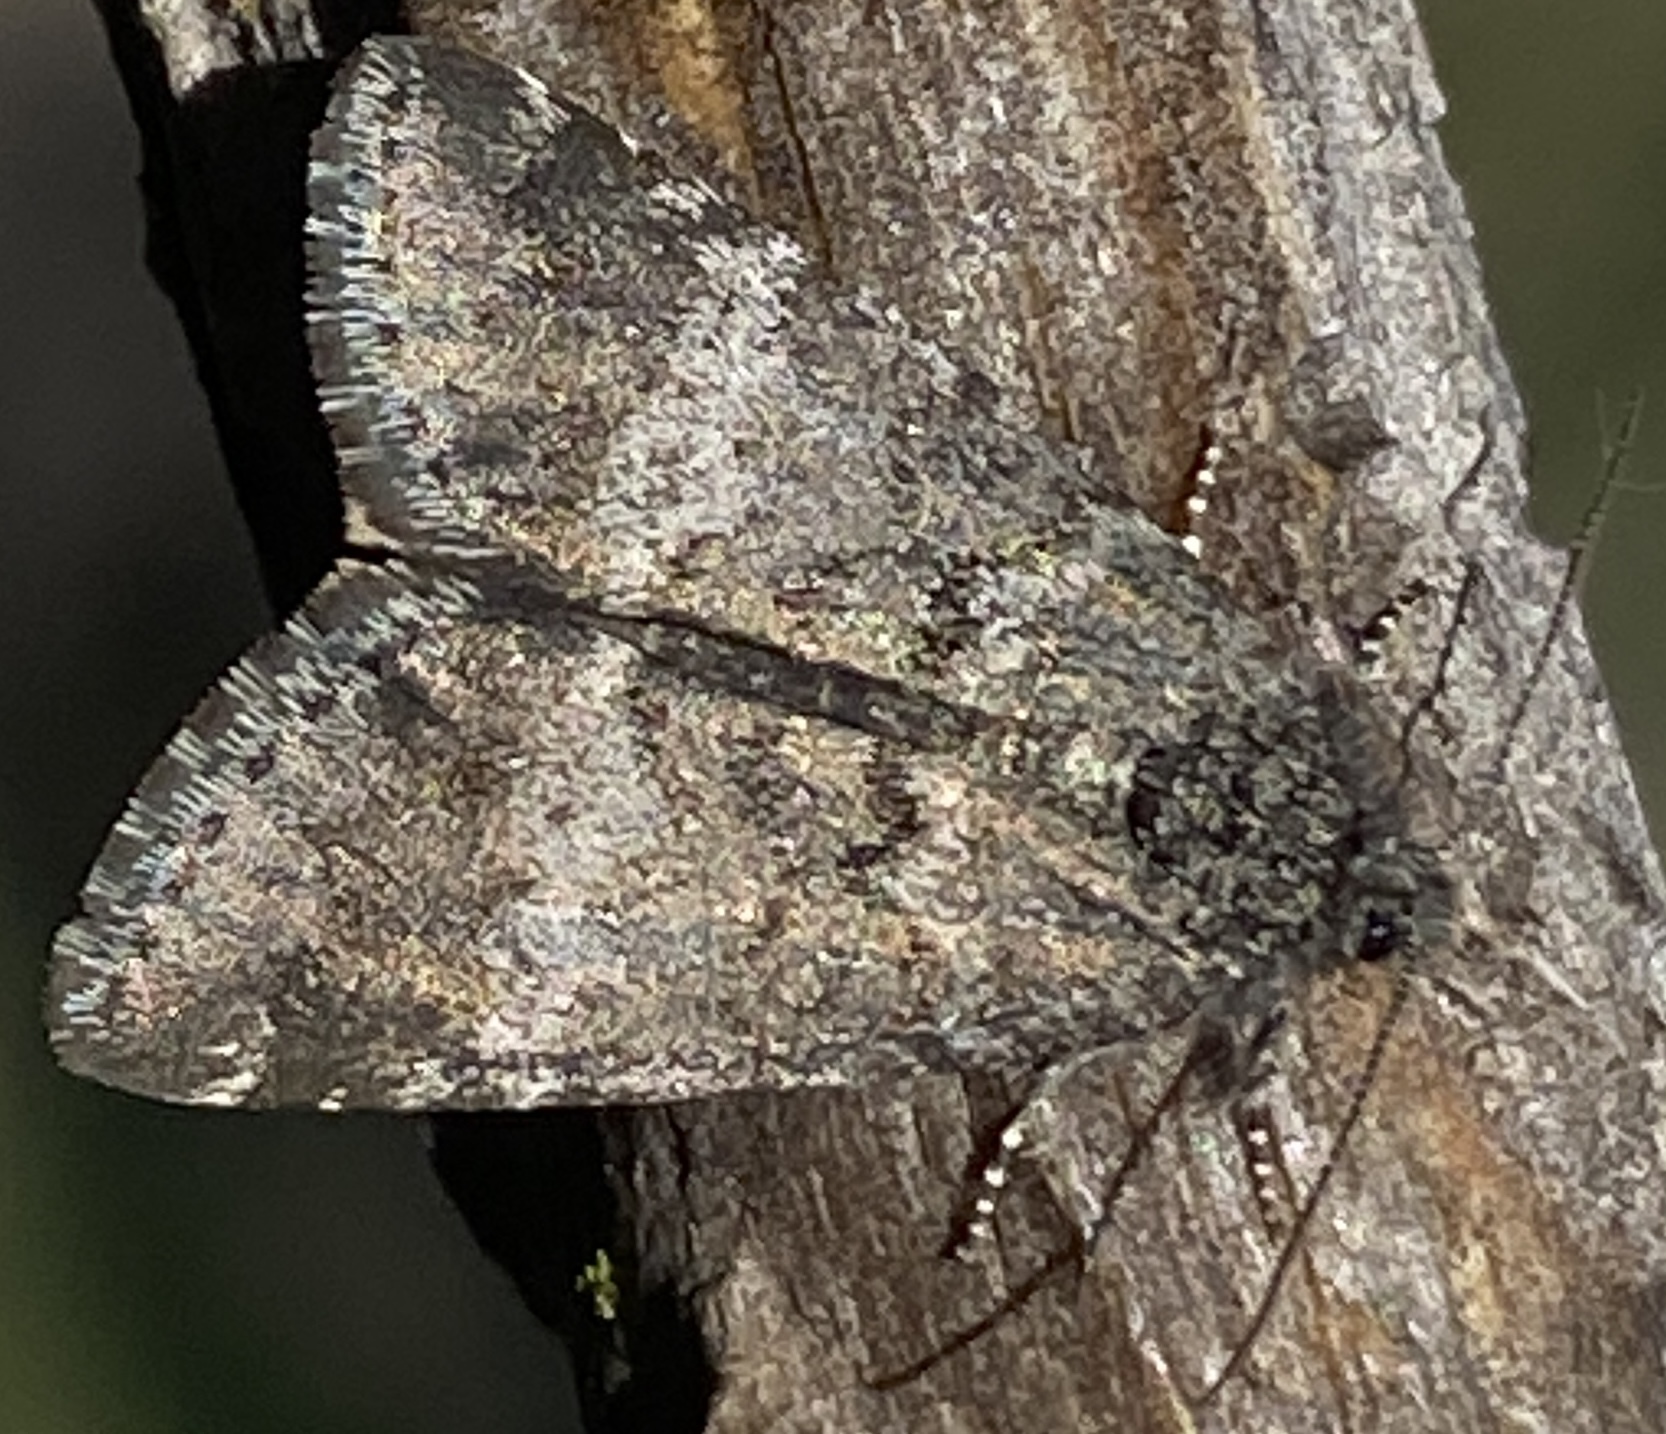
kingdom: Animalia
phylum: Arthropoda
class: Insecta
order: Lepidoptera
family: Noctuidae
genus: Annaphila
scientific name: Annaphila arvalis
